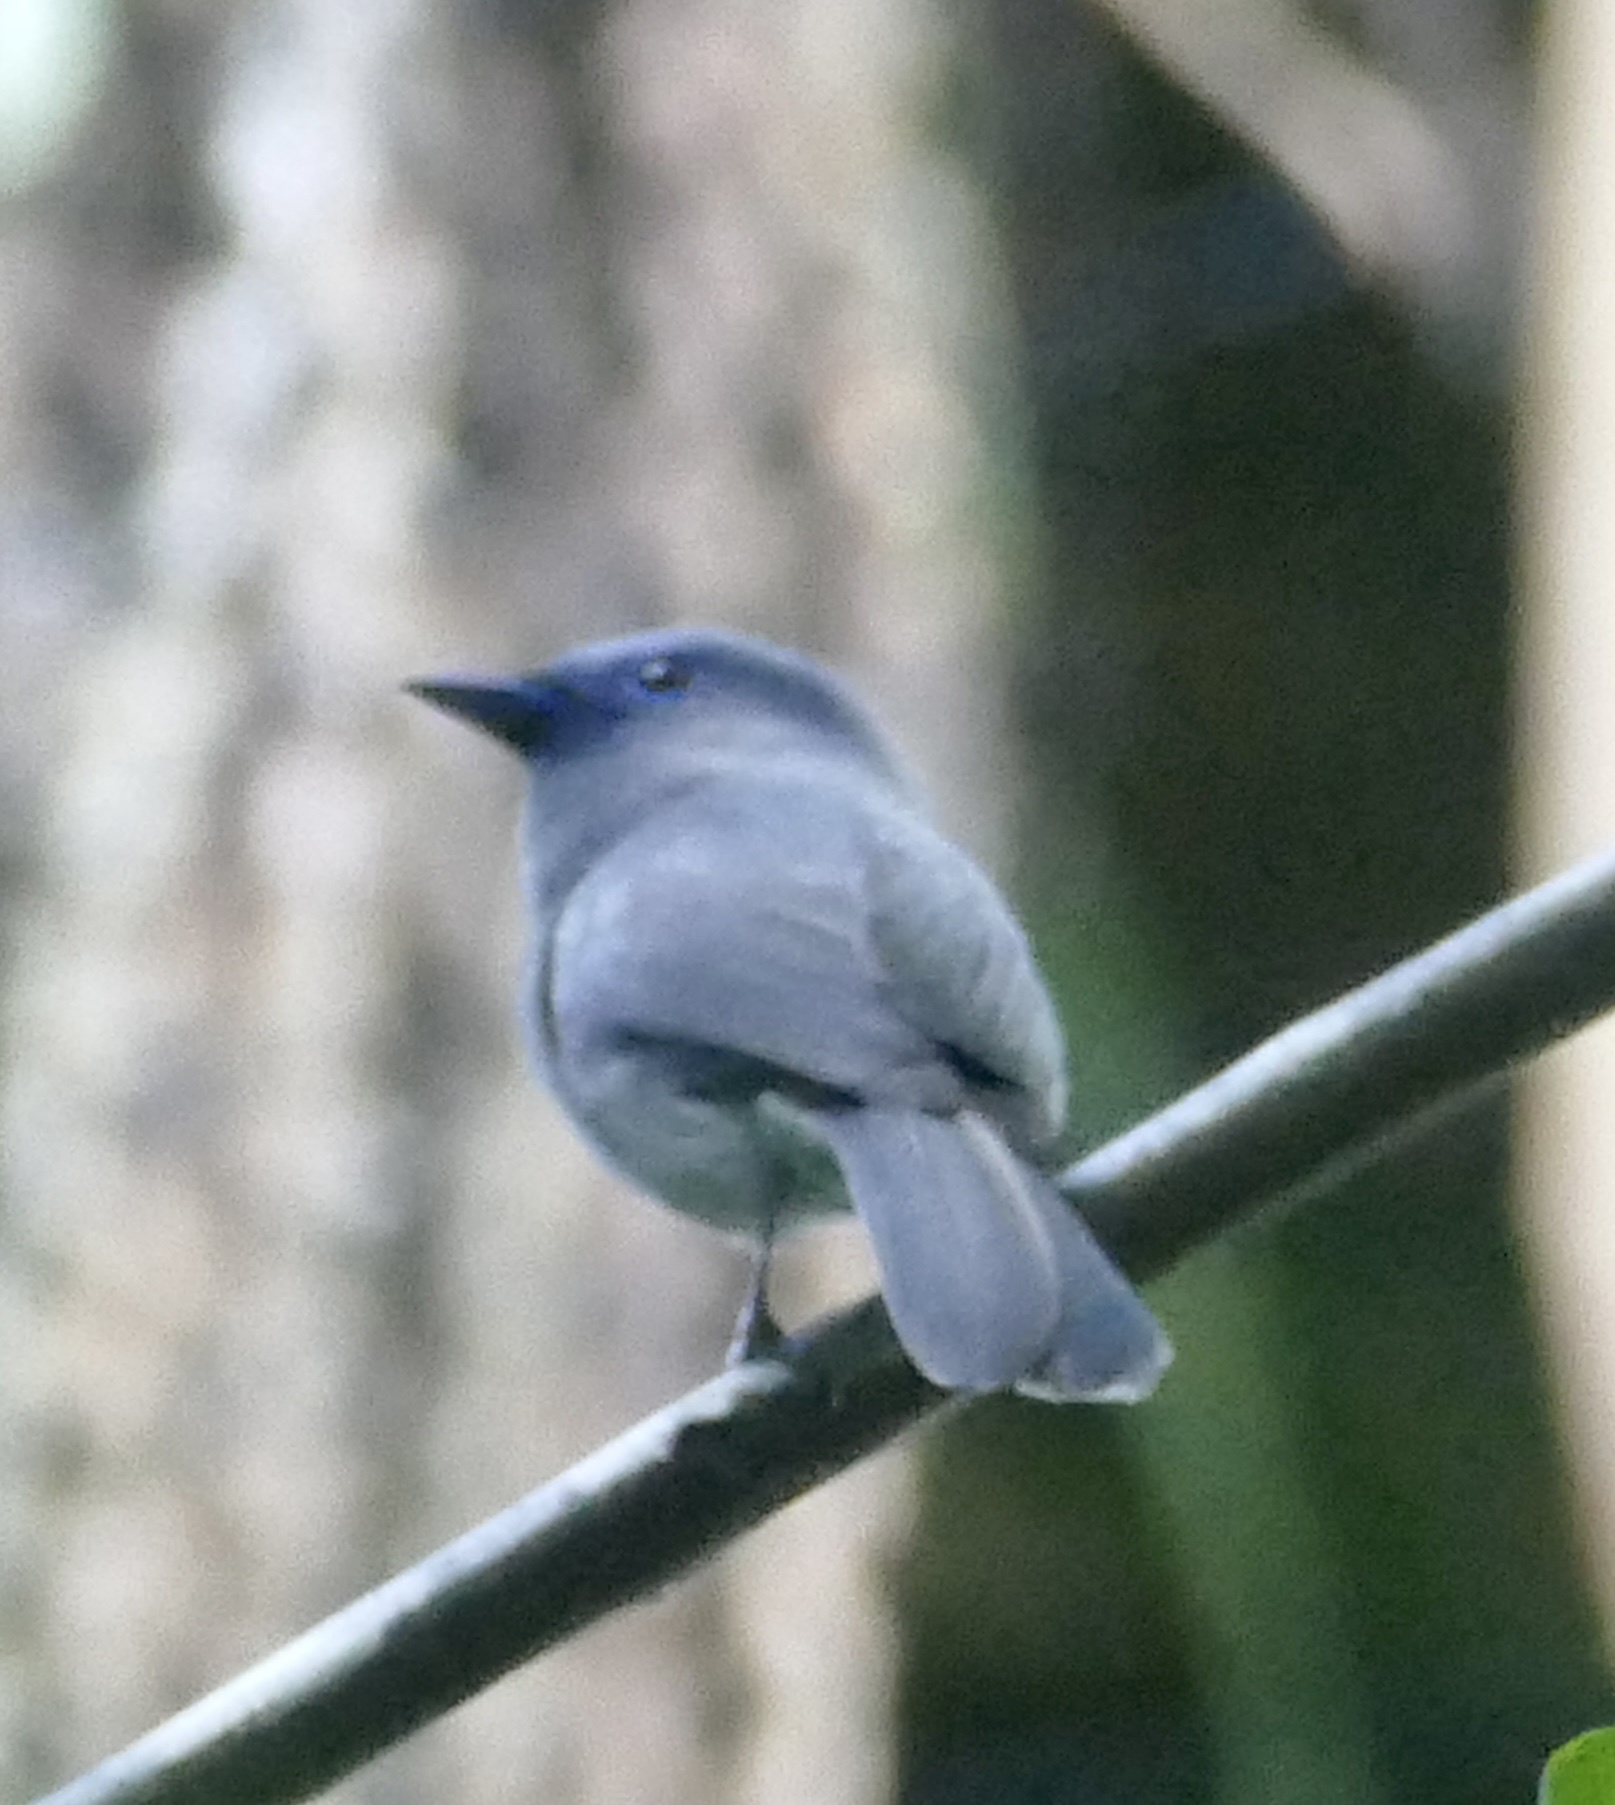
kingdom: Animalia
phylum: Chordata
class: Aves
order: Passeriformes
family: Monarchidae
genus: Hypothymis
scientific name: Hypothymis azurea
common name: Black-naped monarch
